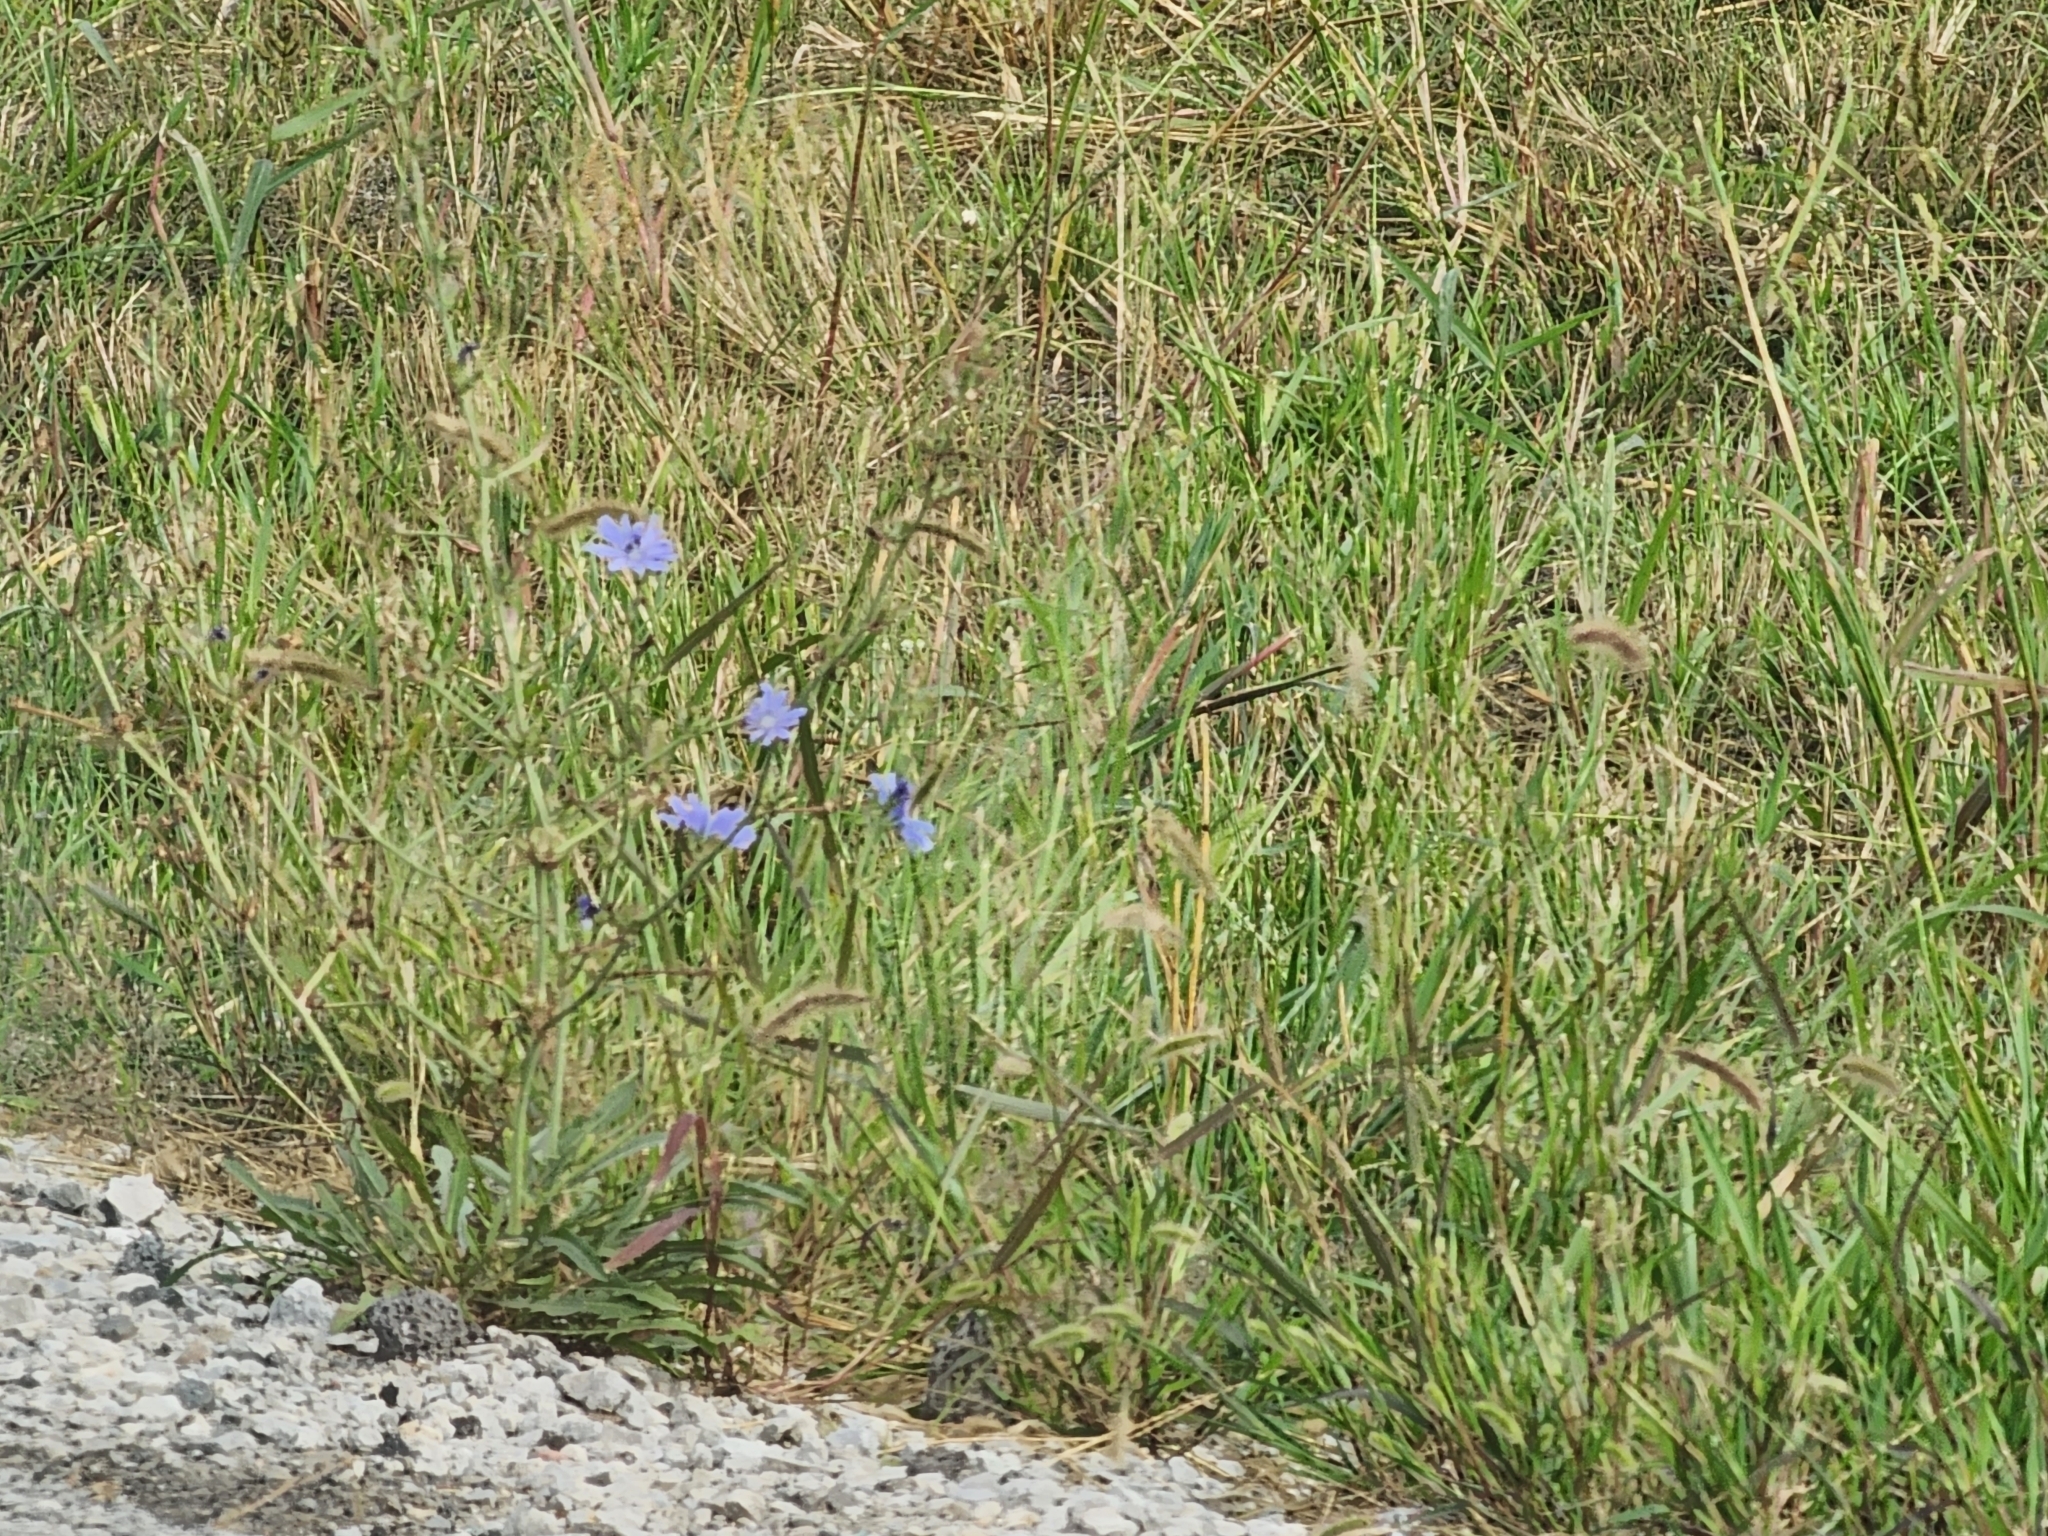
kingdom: Plantae
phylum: Tracheophyta
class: Magnoliopsida
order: Asterales
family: Asteraceae
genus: Cichorium
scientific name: Cichorium intybus
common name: Chicory
